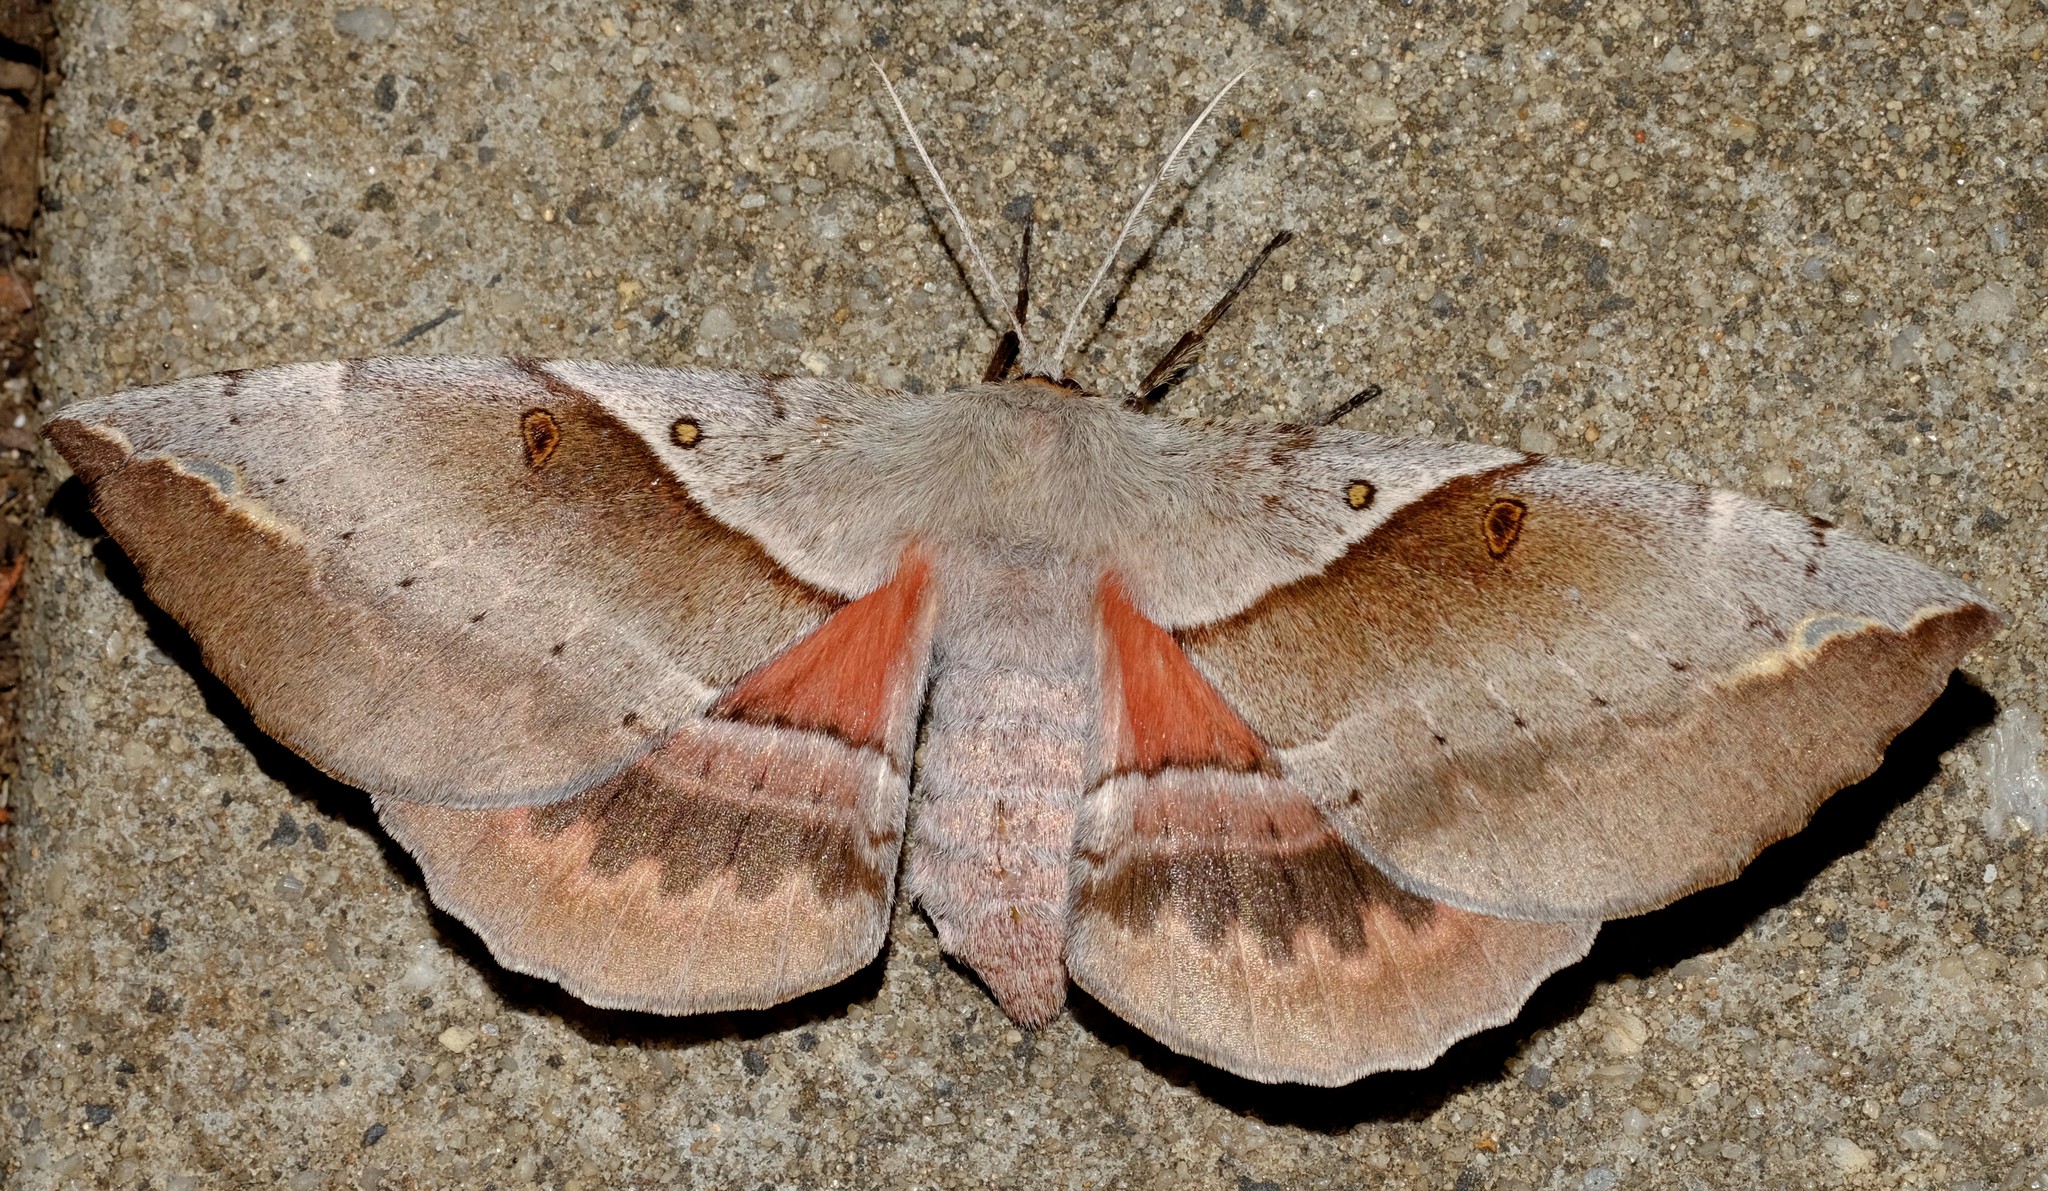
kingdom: Animalia
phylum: Arthropoda
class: Insecta
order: Lepidoptera
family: Anthelidae
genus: Chelepteryx
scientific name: Chelepteryx chalepteryx
